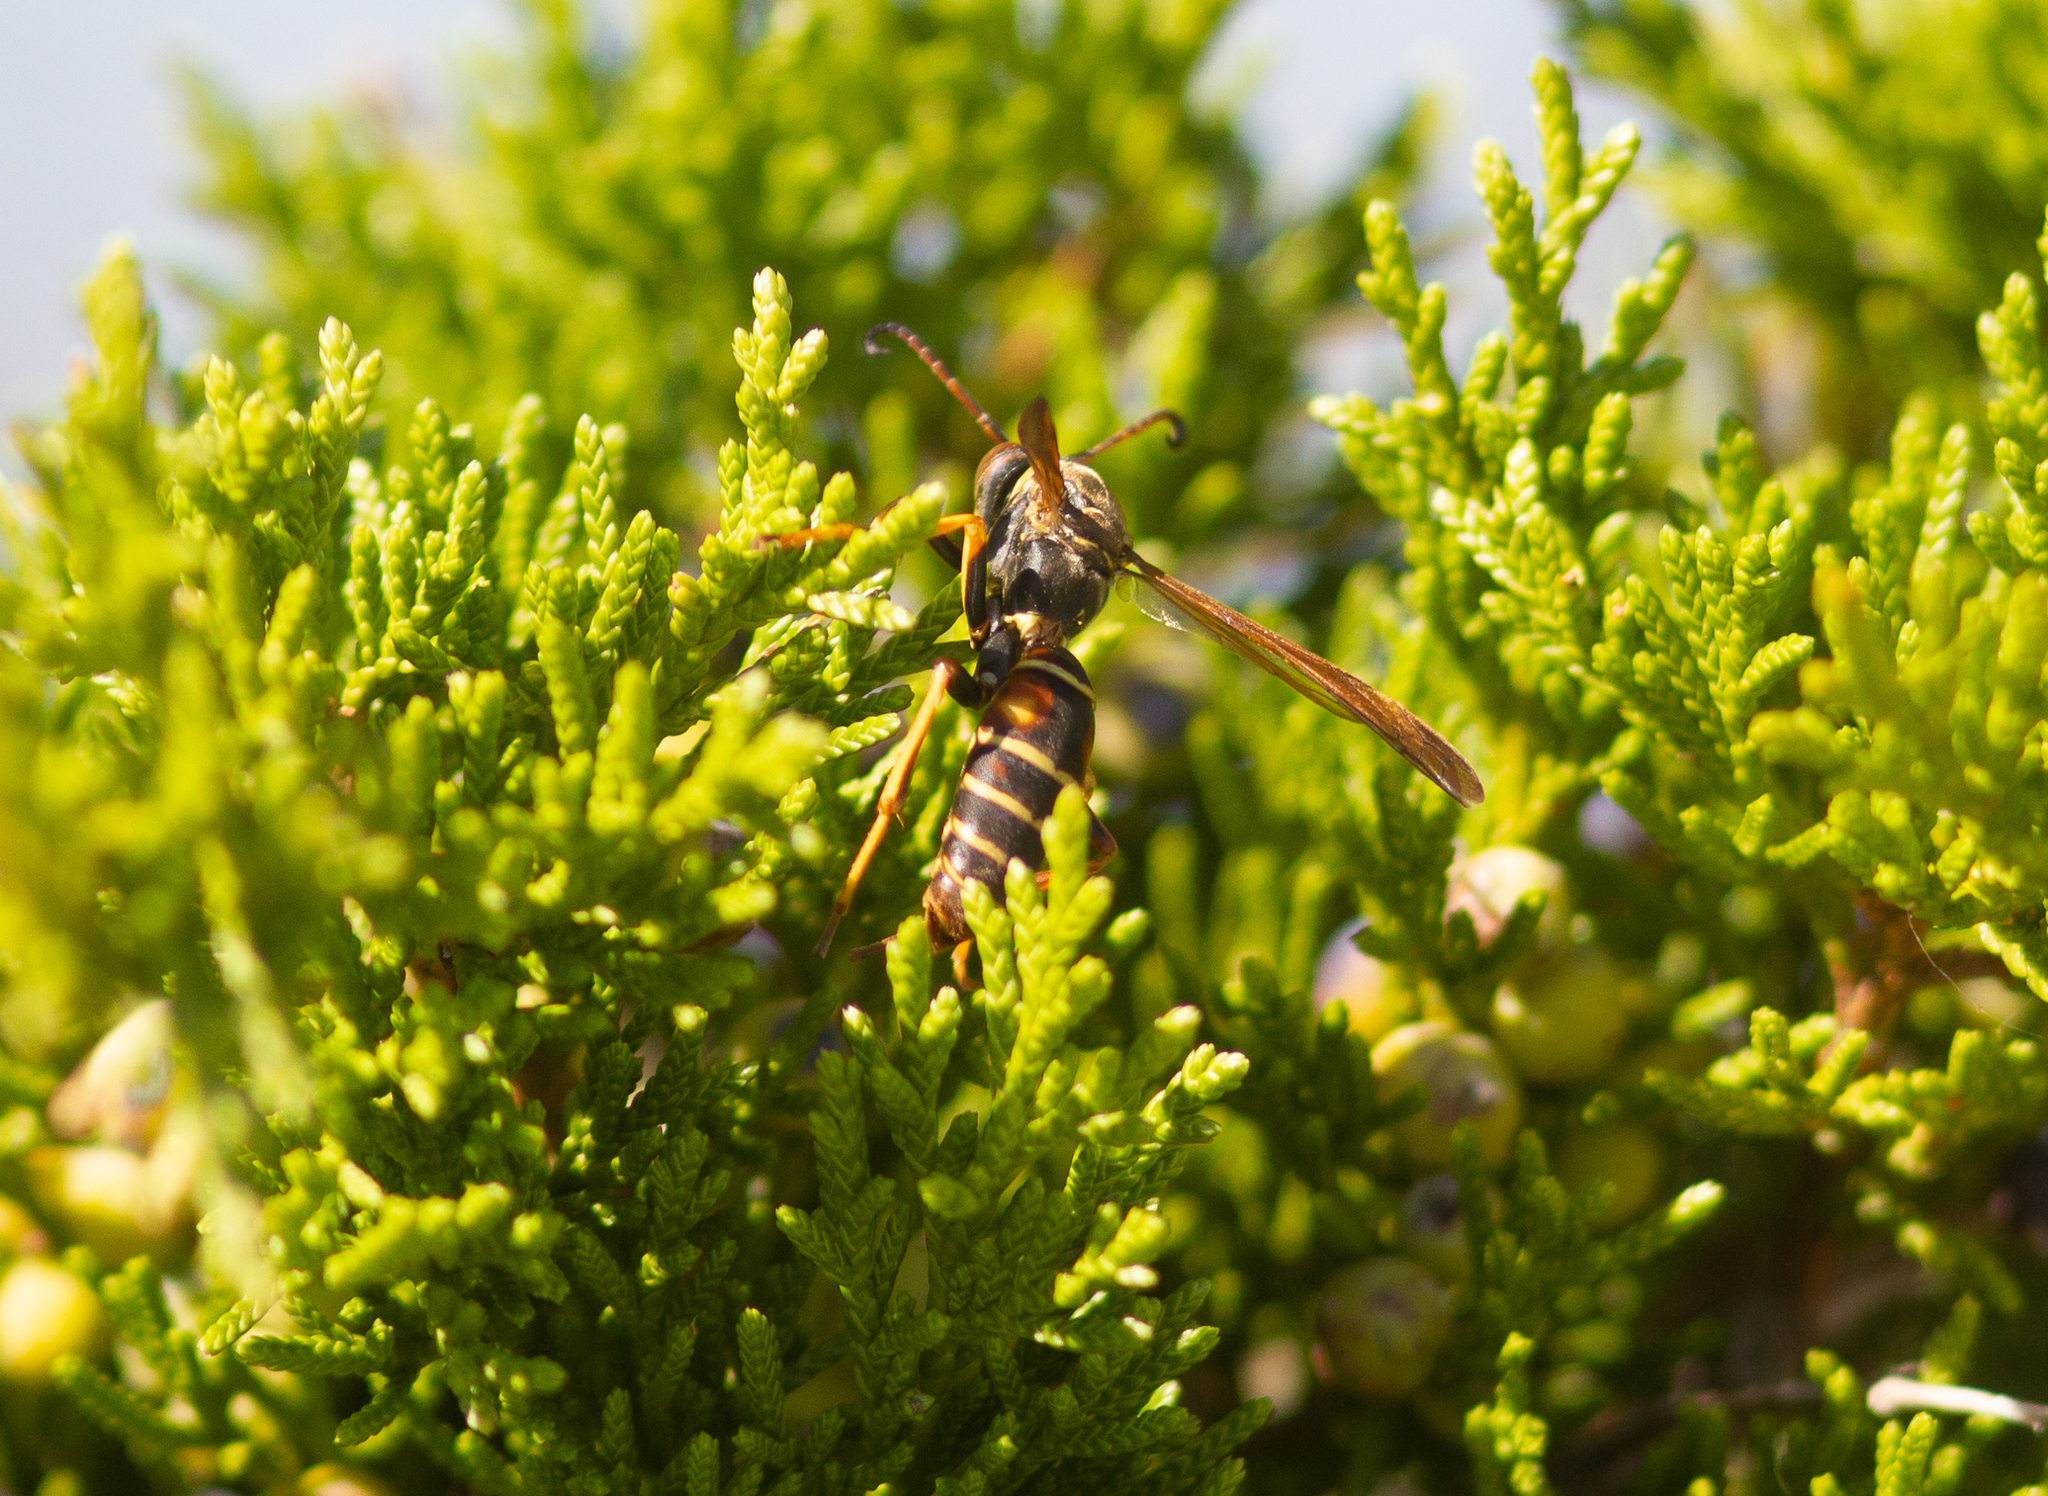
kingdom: Animalia
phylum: Arthropoda
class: Insecta
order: Hymenoptera
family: Eumenidae
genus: Polistes
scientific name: Polistes fuscatus
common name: Dark paper wasp
